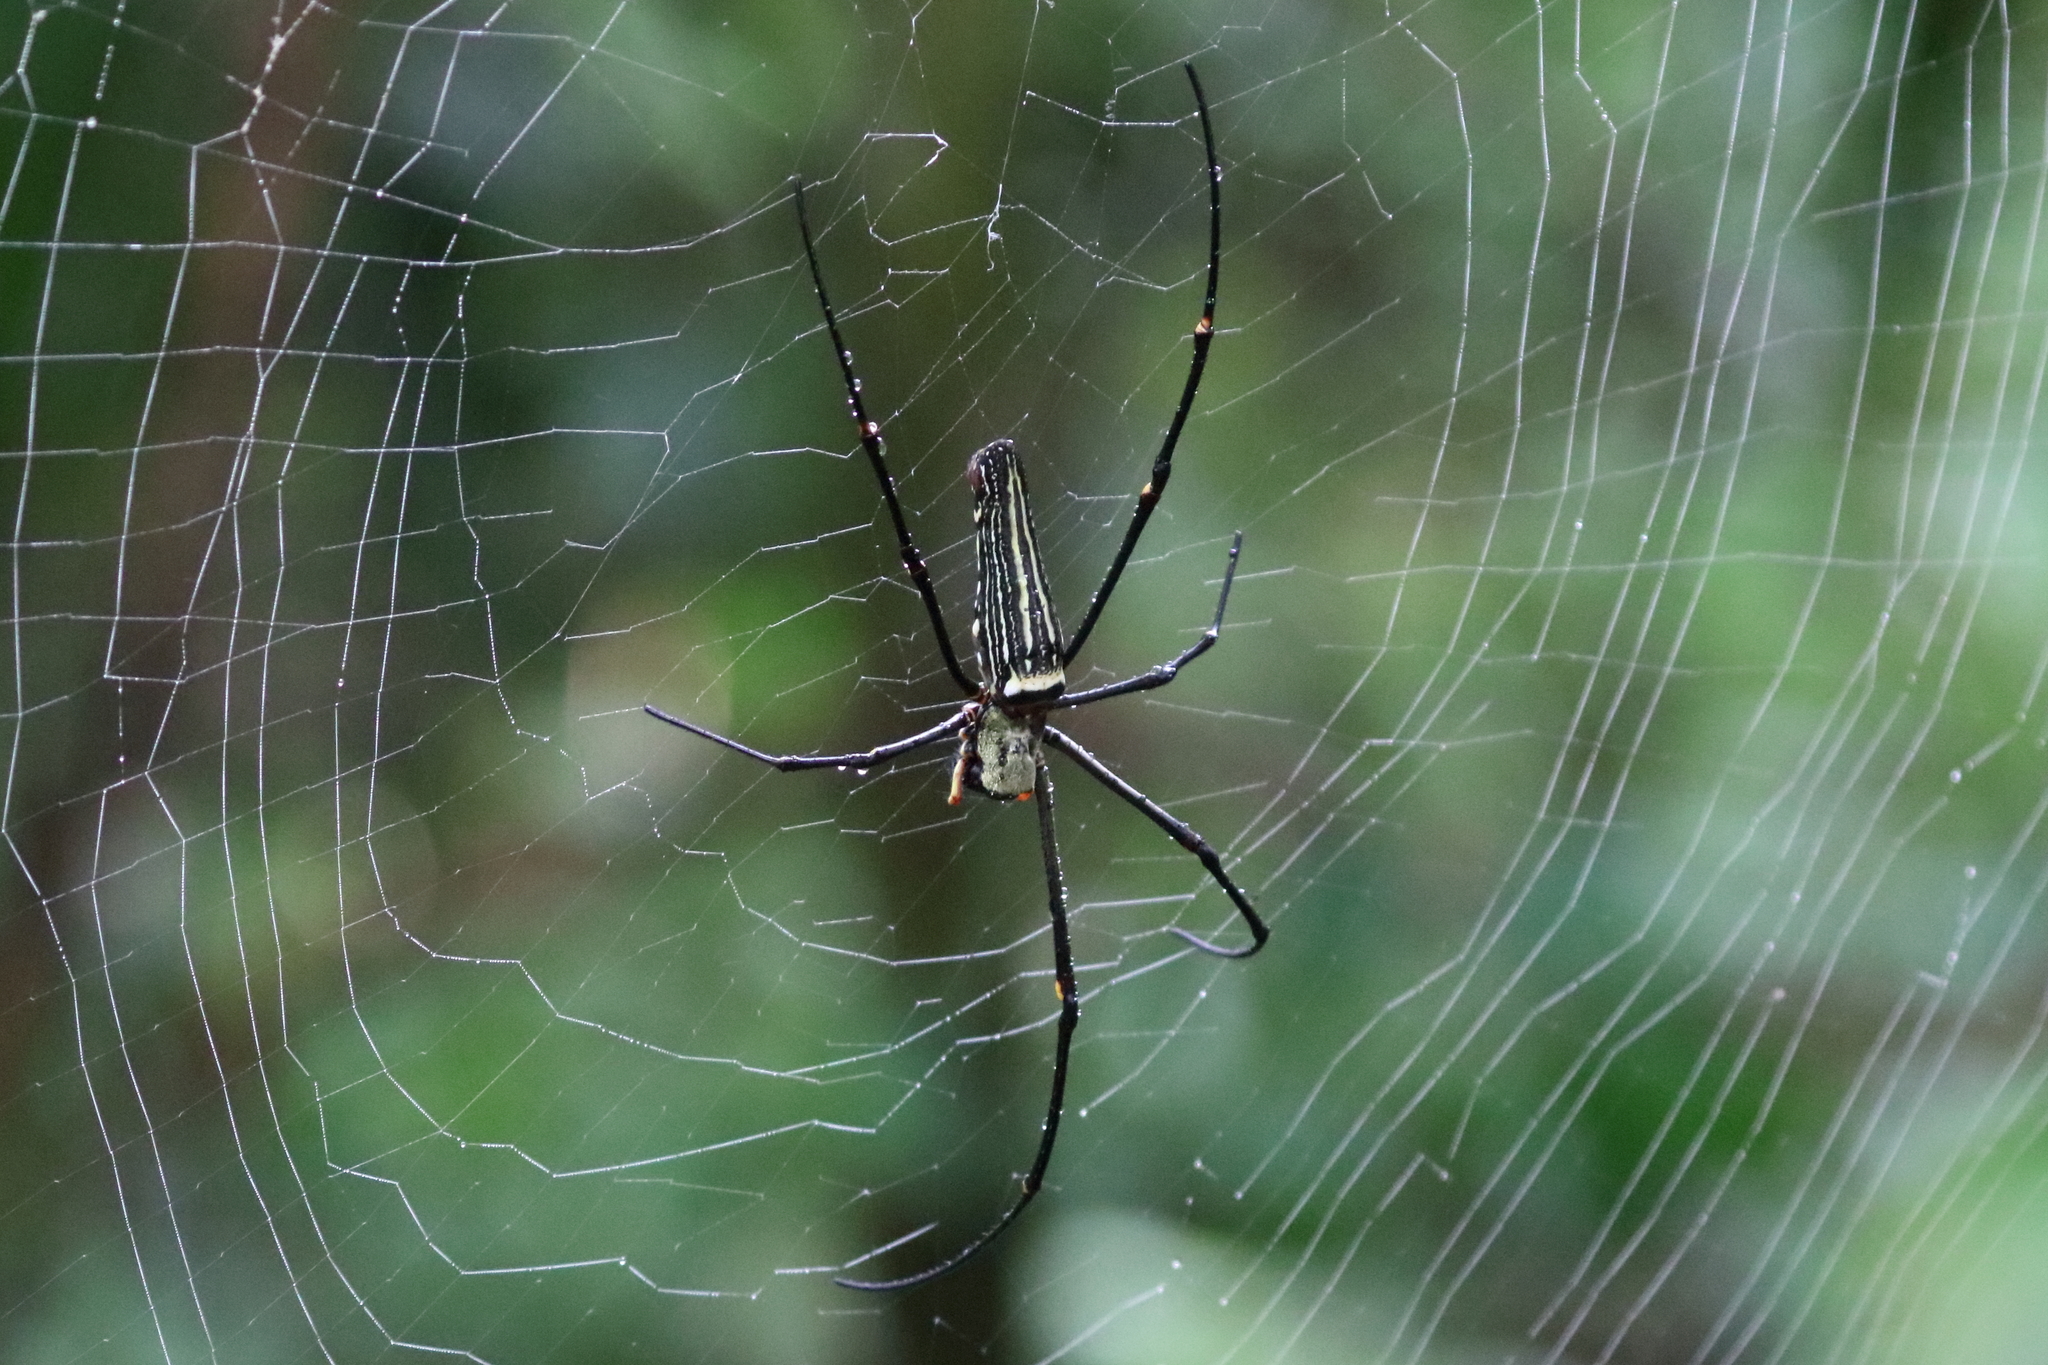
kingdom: Animalia
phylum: Arthropoda
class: Arachnida
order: Araneae
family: Araneidae
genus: Nephila
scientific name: Nephila pilipes
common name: Giant golden orb weaver
